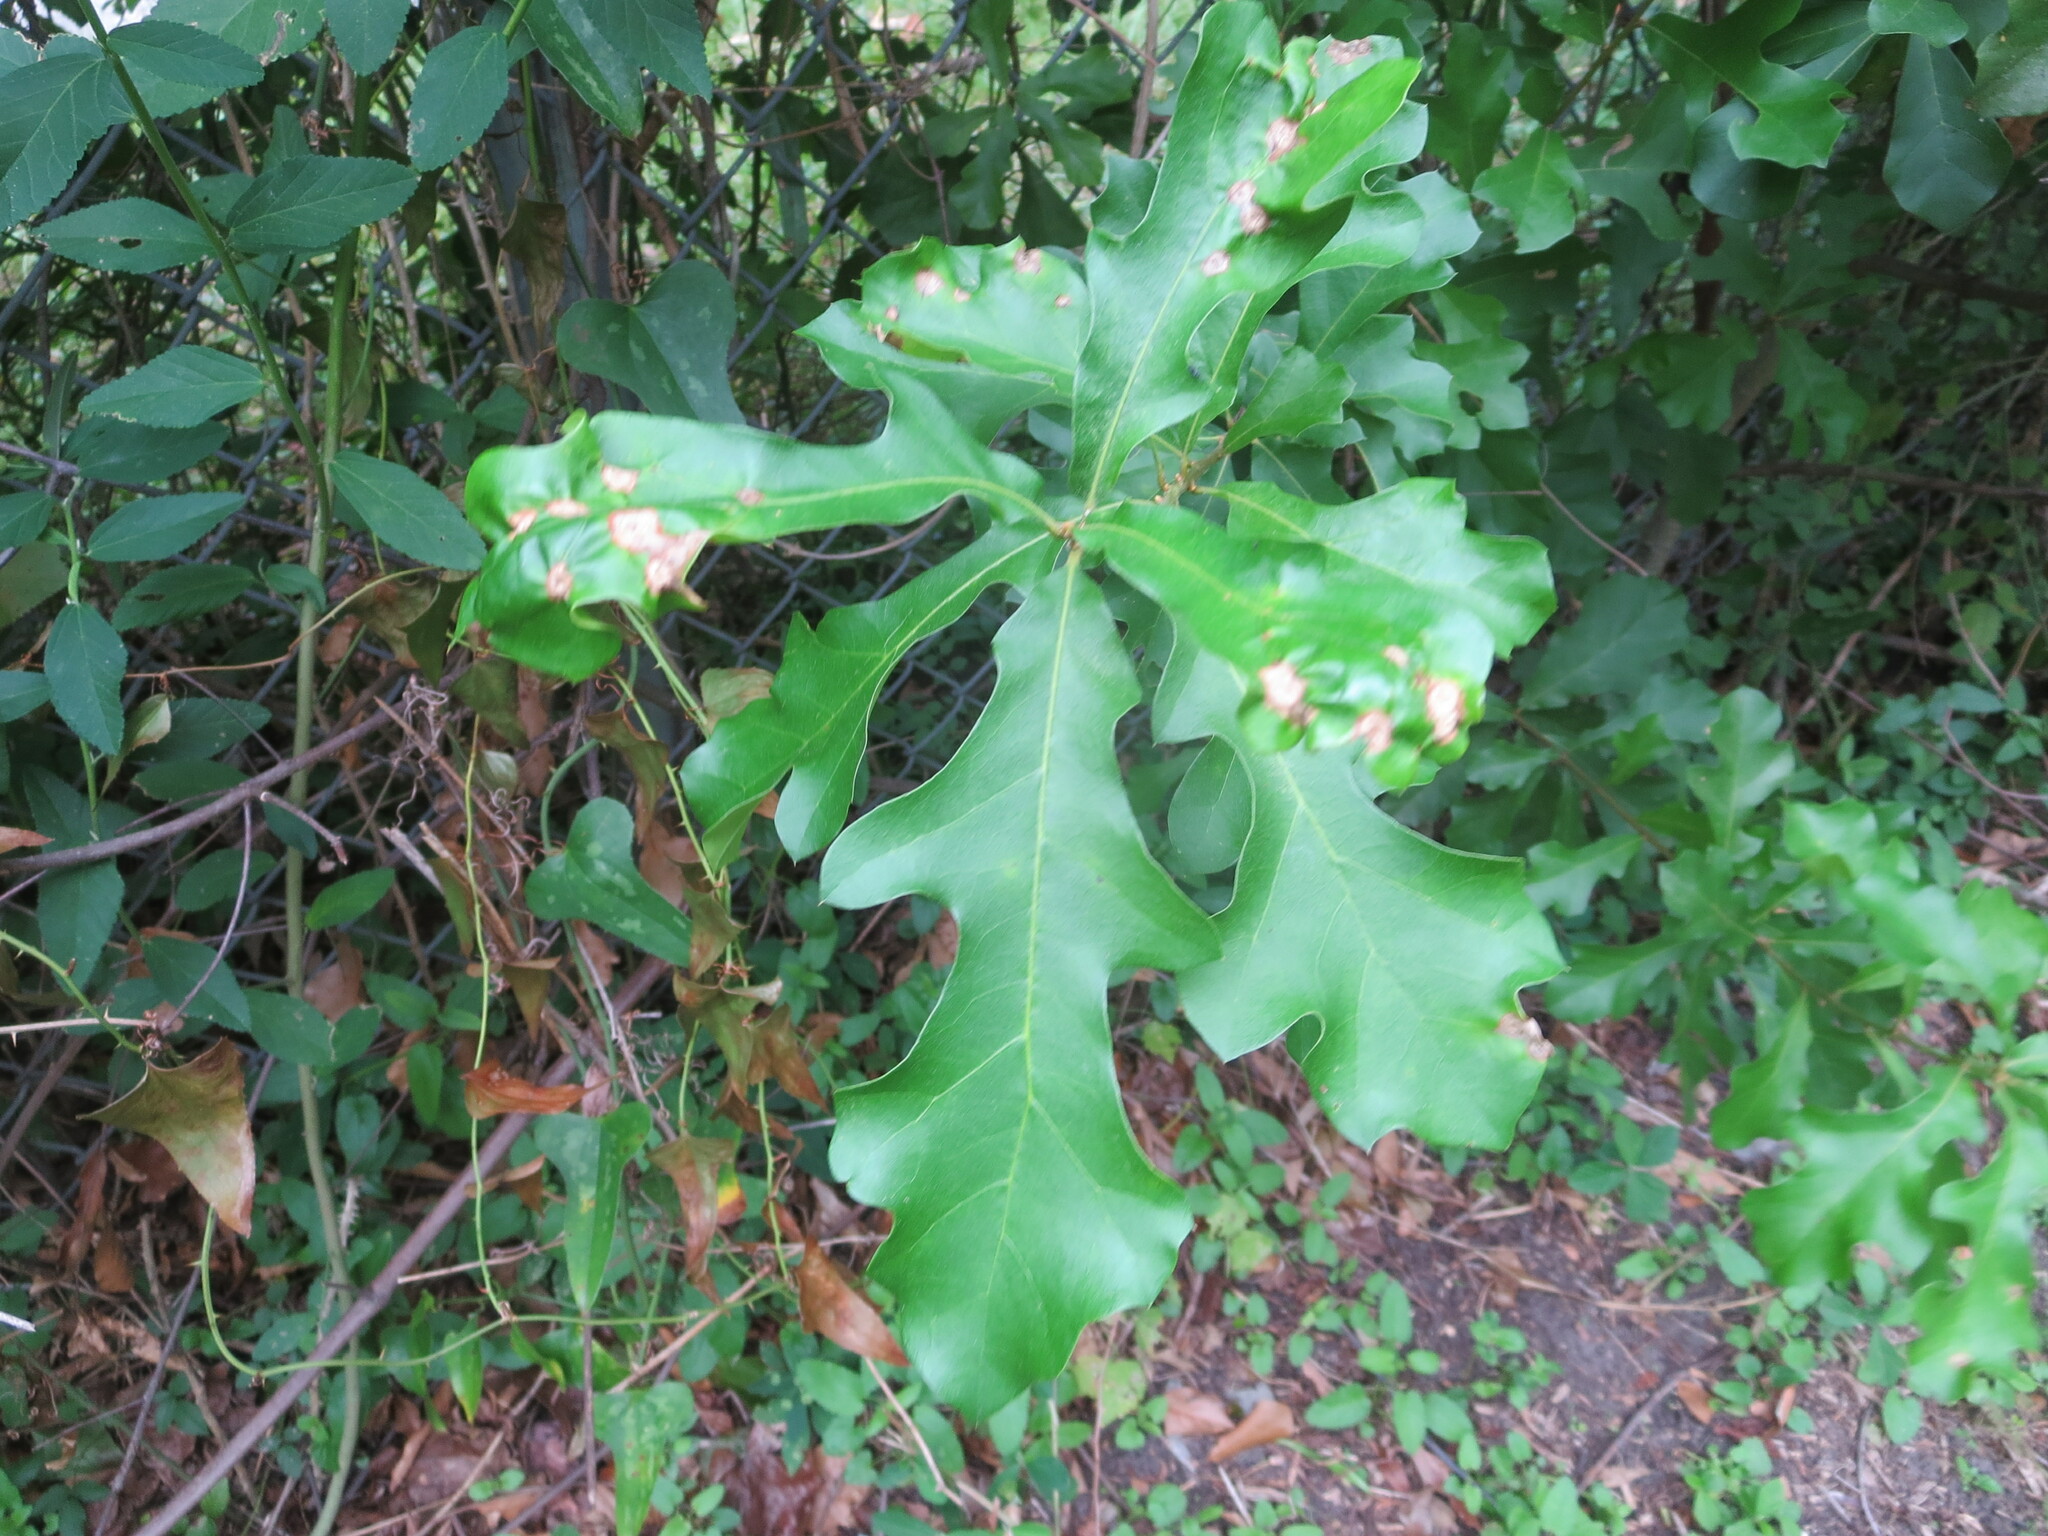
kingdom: Plantae
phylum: Tracheophyta
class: Magnoliopsida
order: Fagales
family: Fagaceae
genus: Quercus
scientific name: Quercus nigra
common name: Water oak
